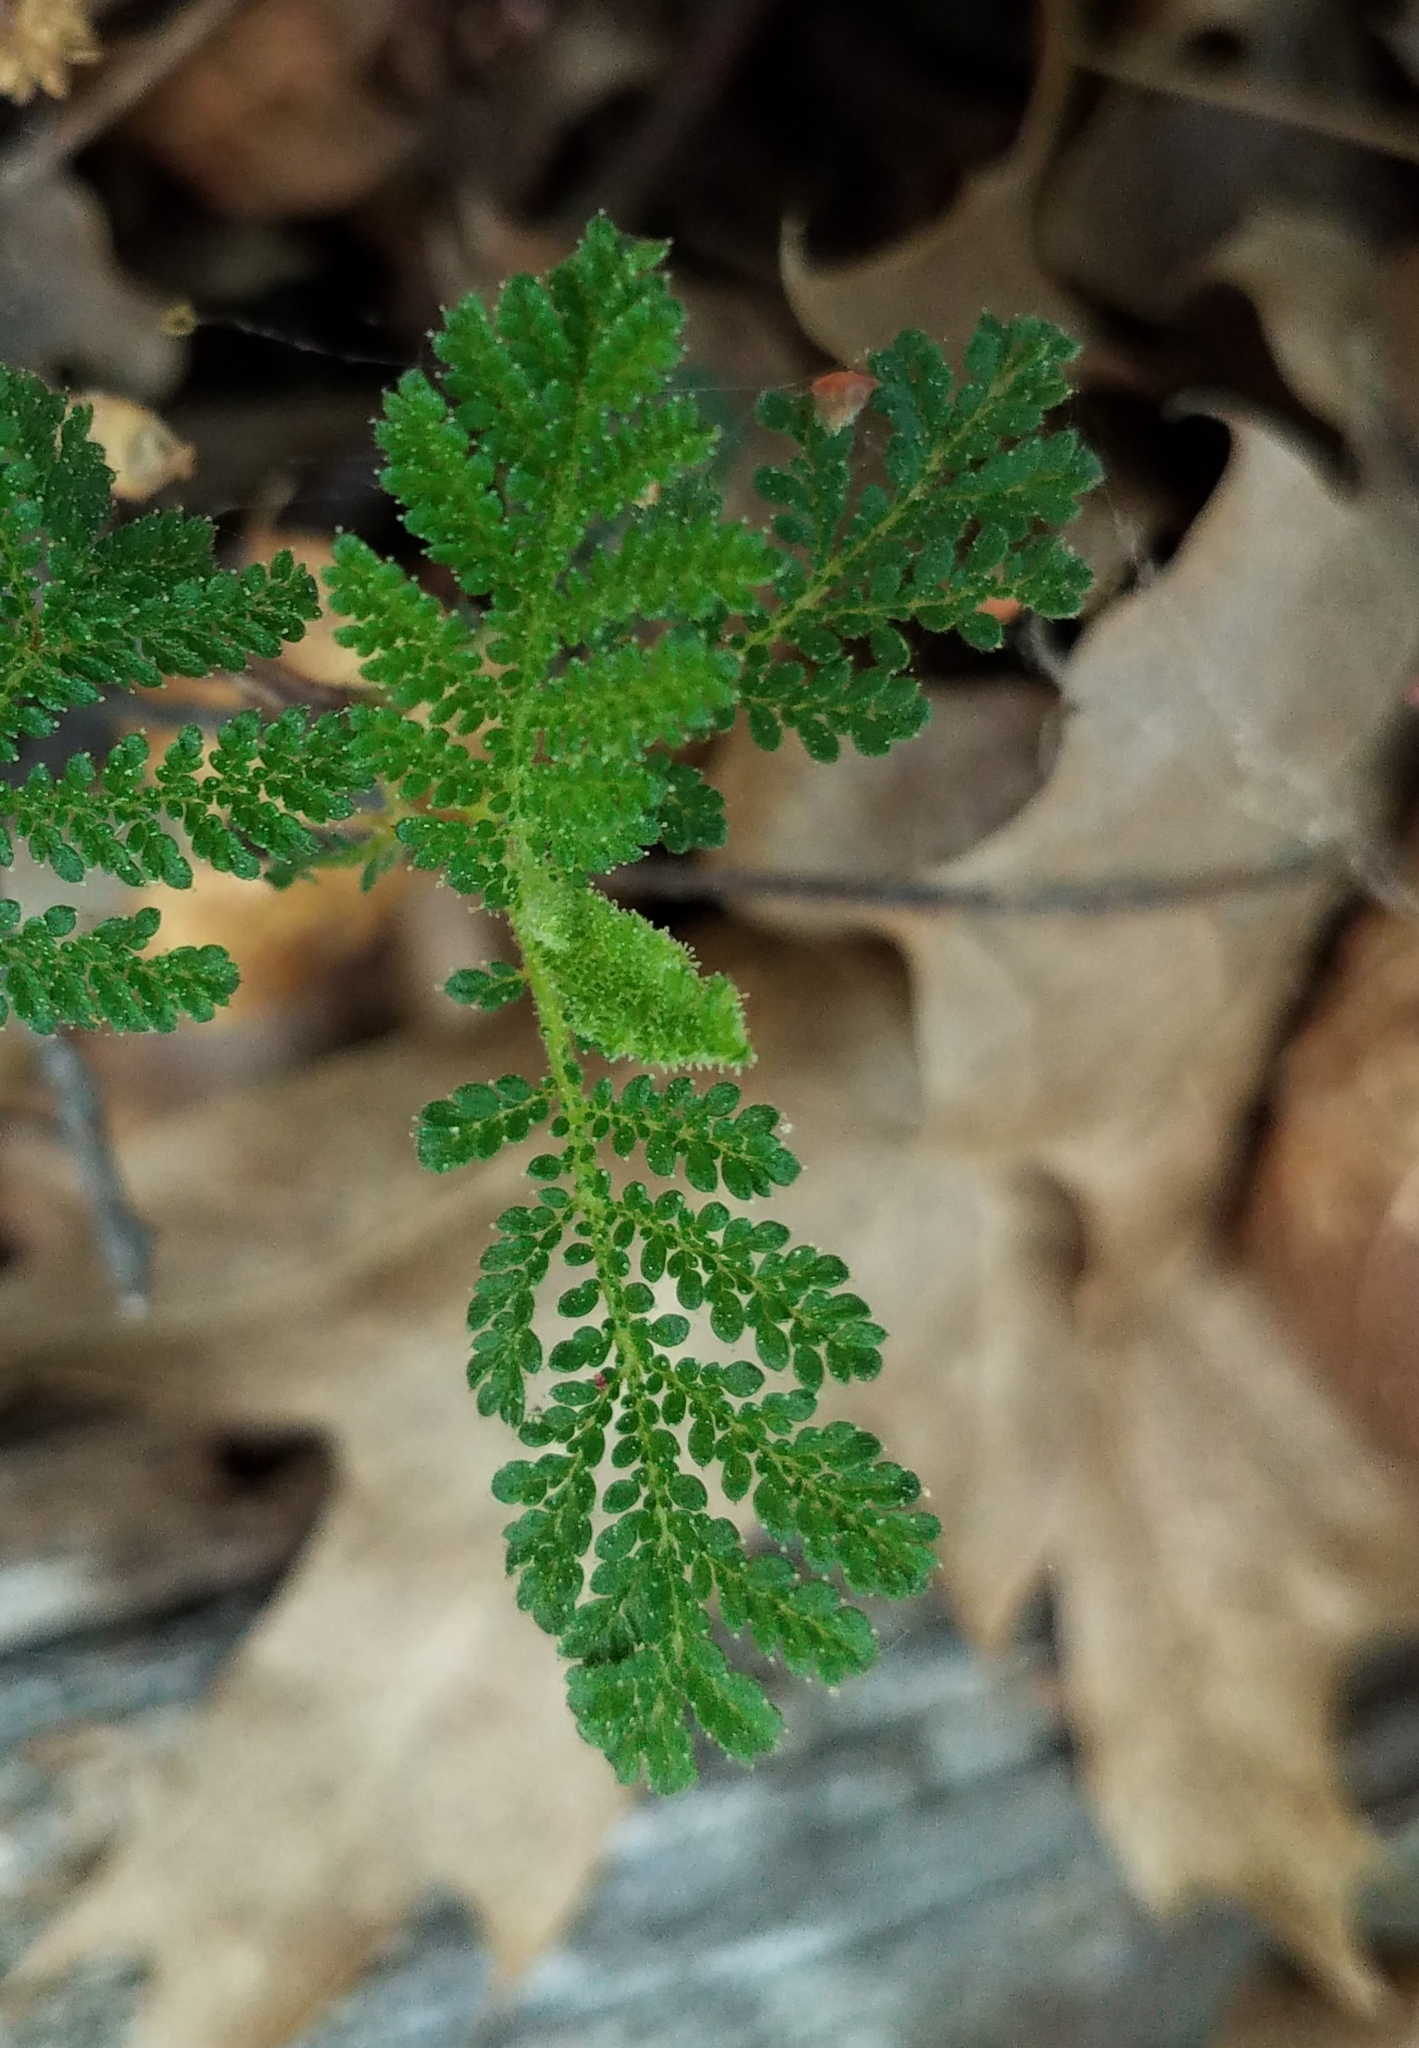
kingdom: Plantae
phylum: Tracheophyta
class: Magnoliopsida
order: Rosales
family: Rosaceae
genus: Chamaebatia
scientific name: Chamaebatia foliolosa
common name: Mountain misery
